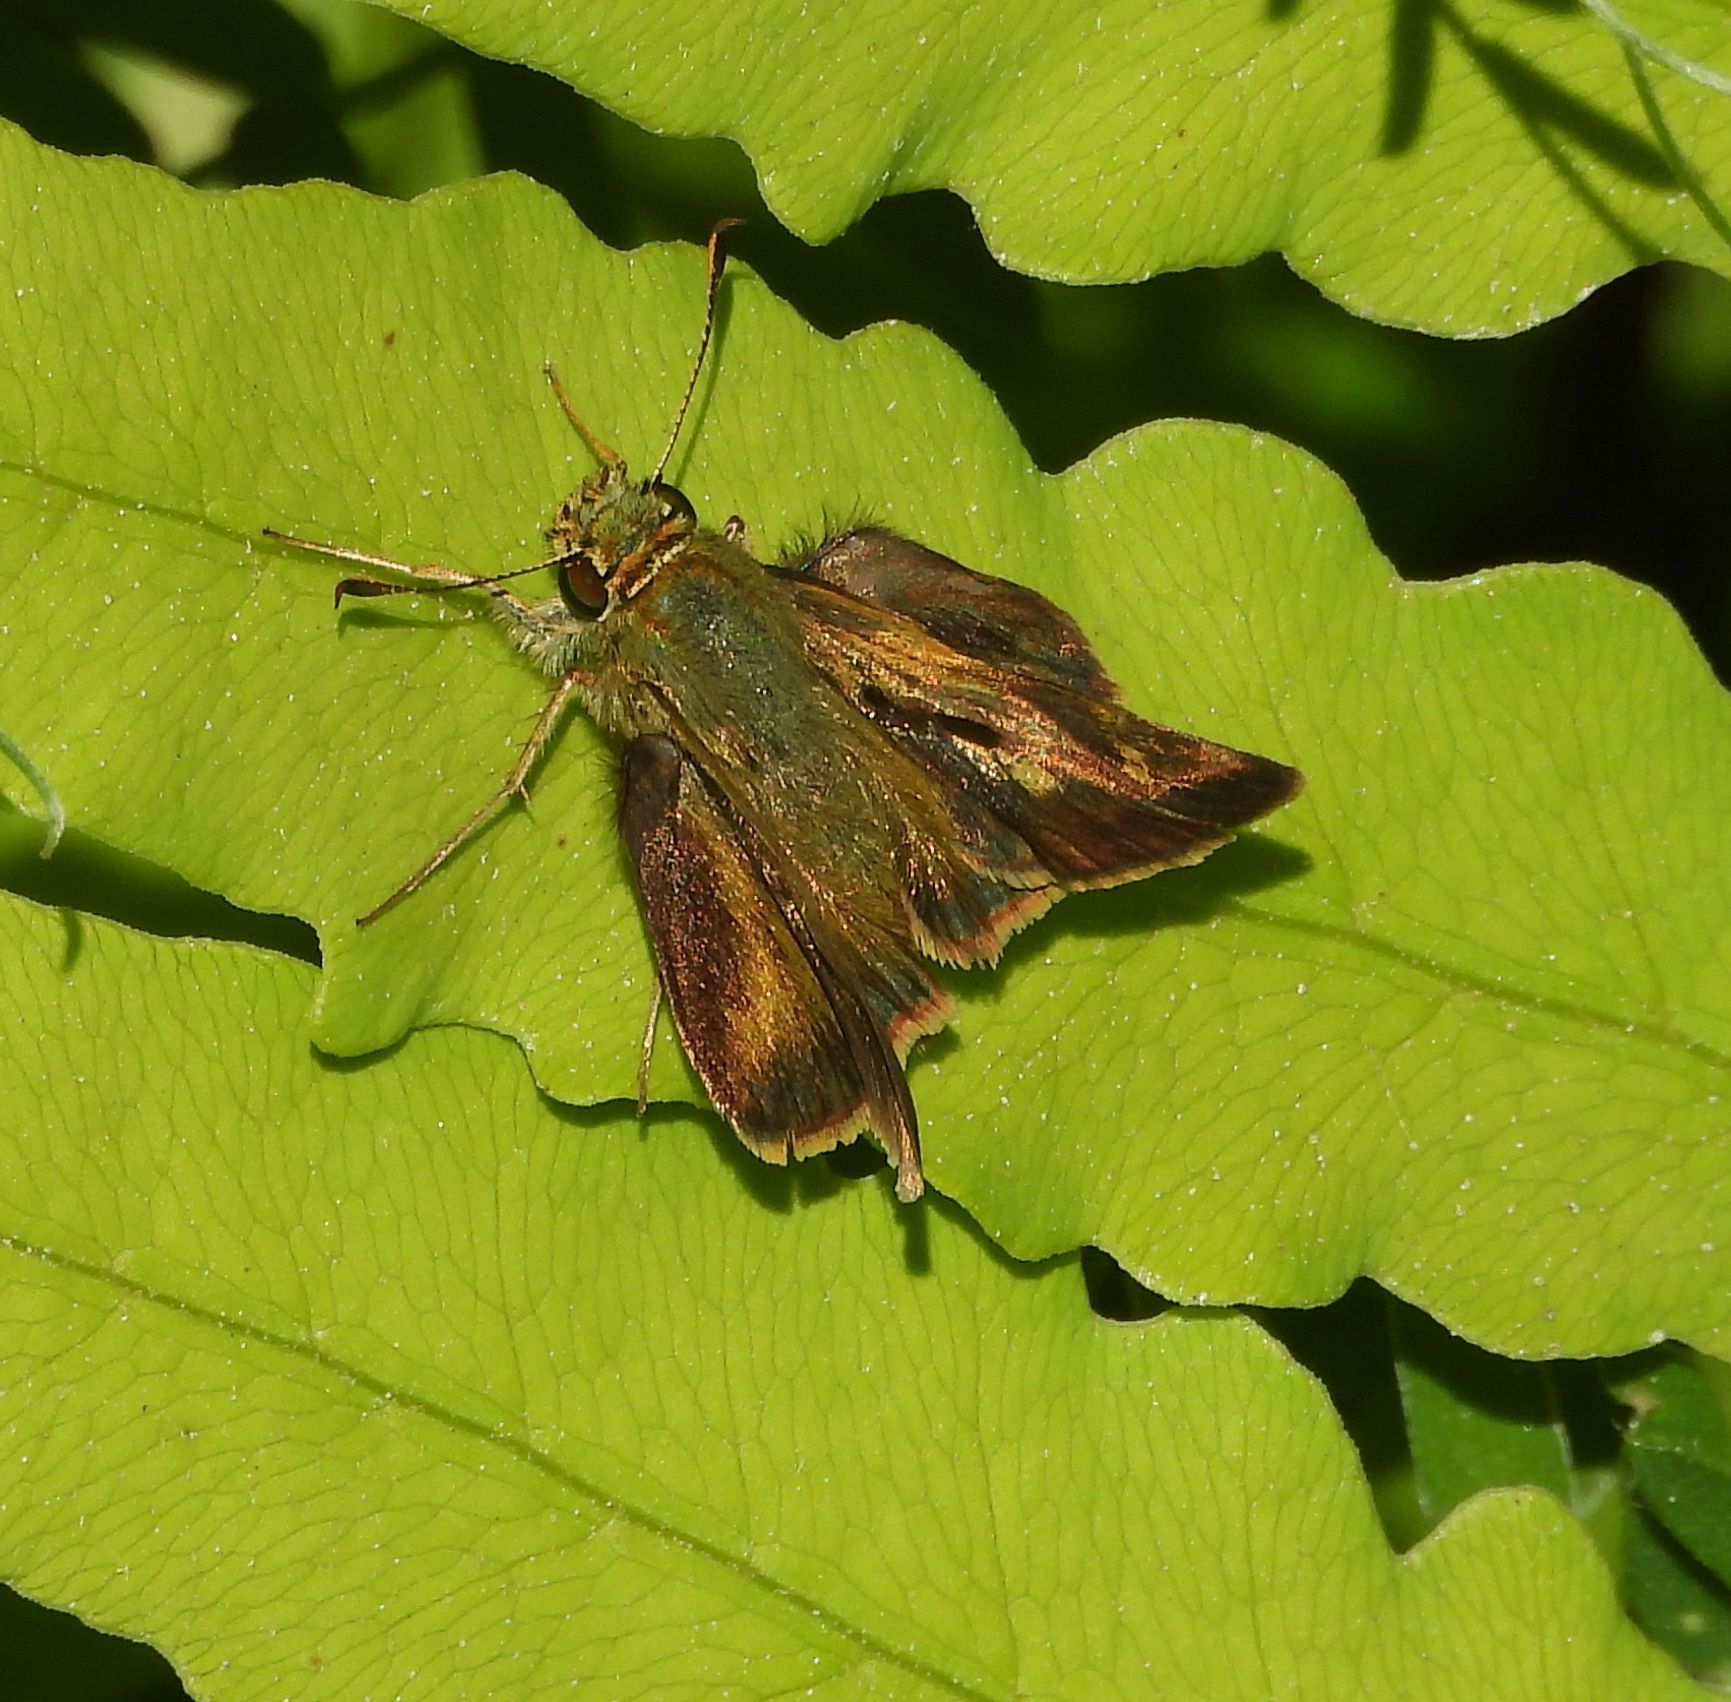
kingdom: Animalia
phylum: Arthropoda
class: Insecta
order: Lepidoptera
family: Hesperiidae
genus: Polites
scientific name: Polites egeremet
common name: Northern broken-dash
